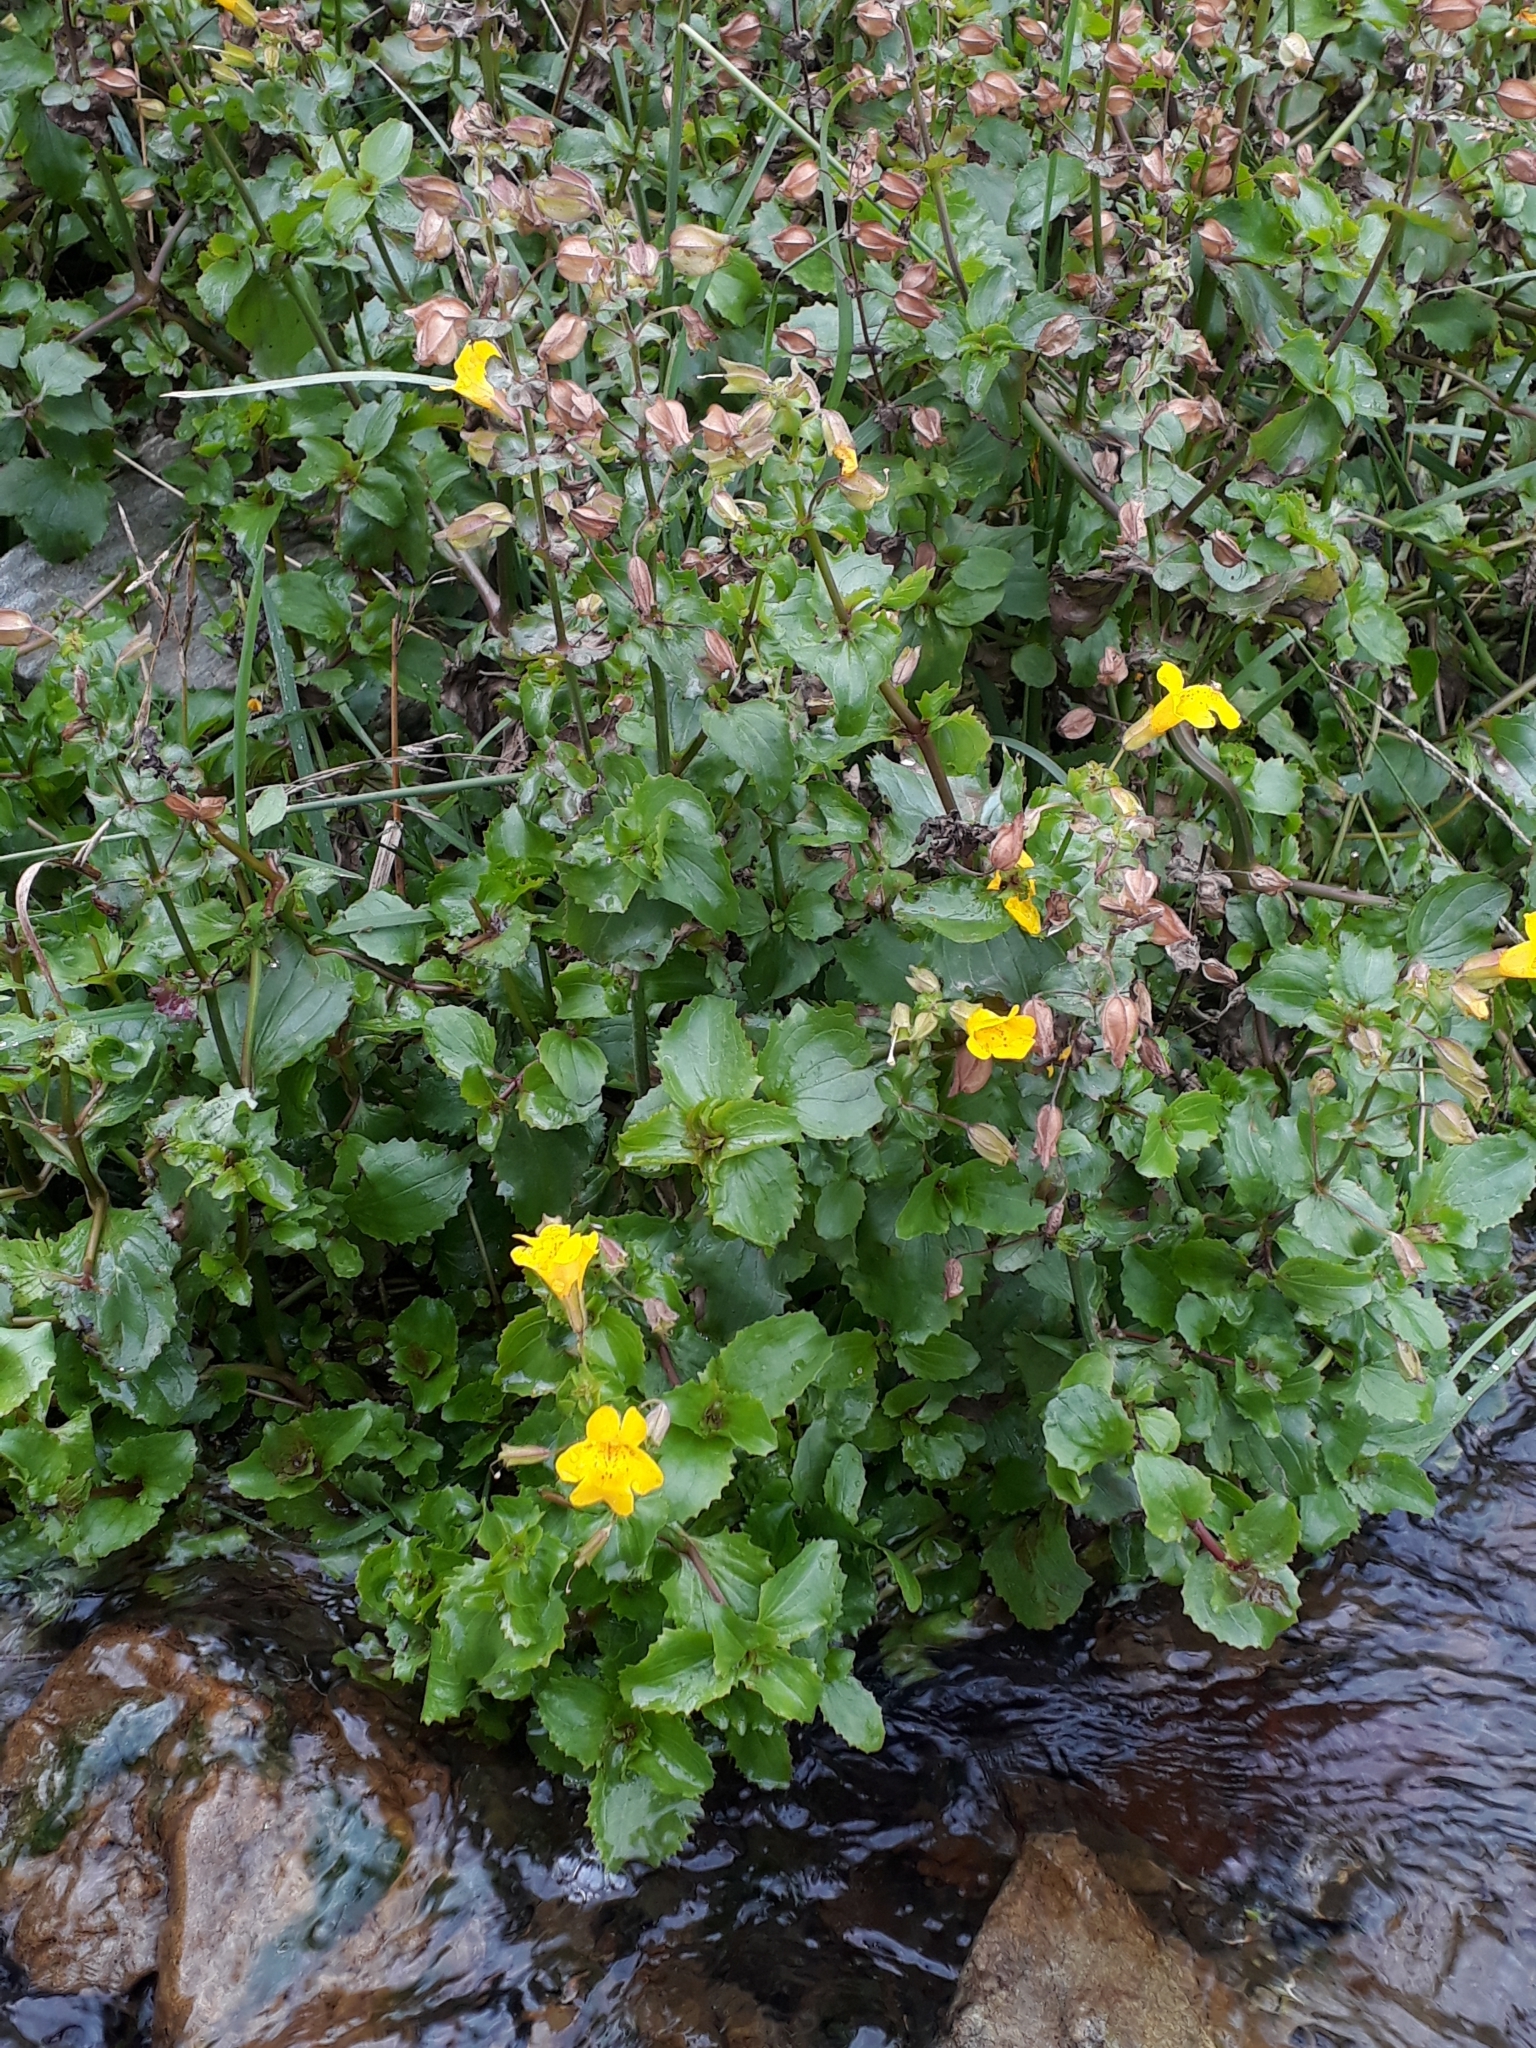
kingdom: Plantae
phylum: Tracheophyta
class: Magnoliopsida
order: Lamiales
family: Phrymaceae
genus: Erythranthe
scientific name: Erythranthe guttata
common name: Monkeyflower
